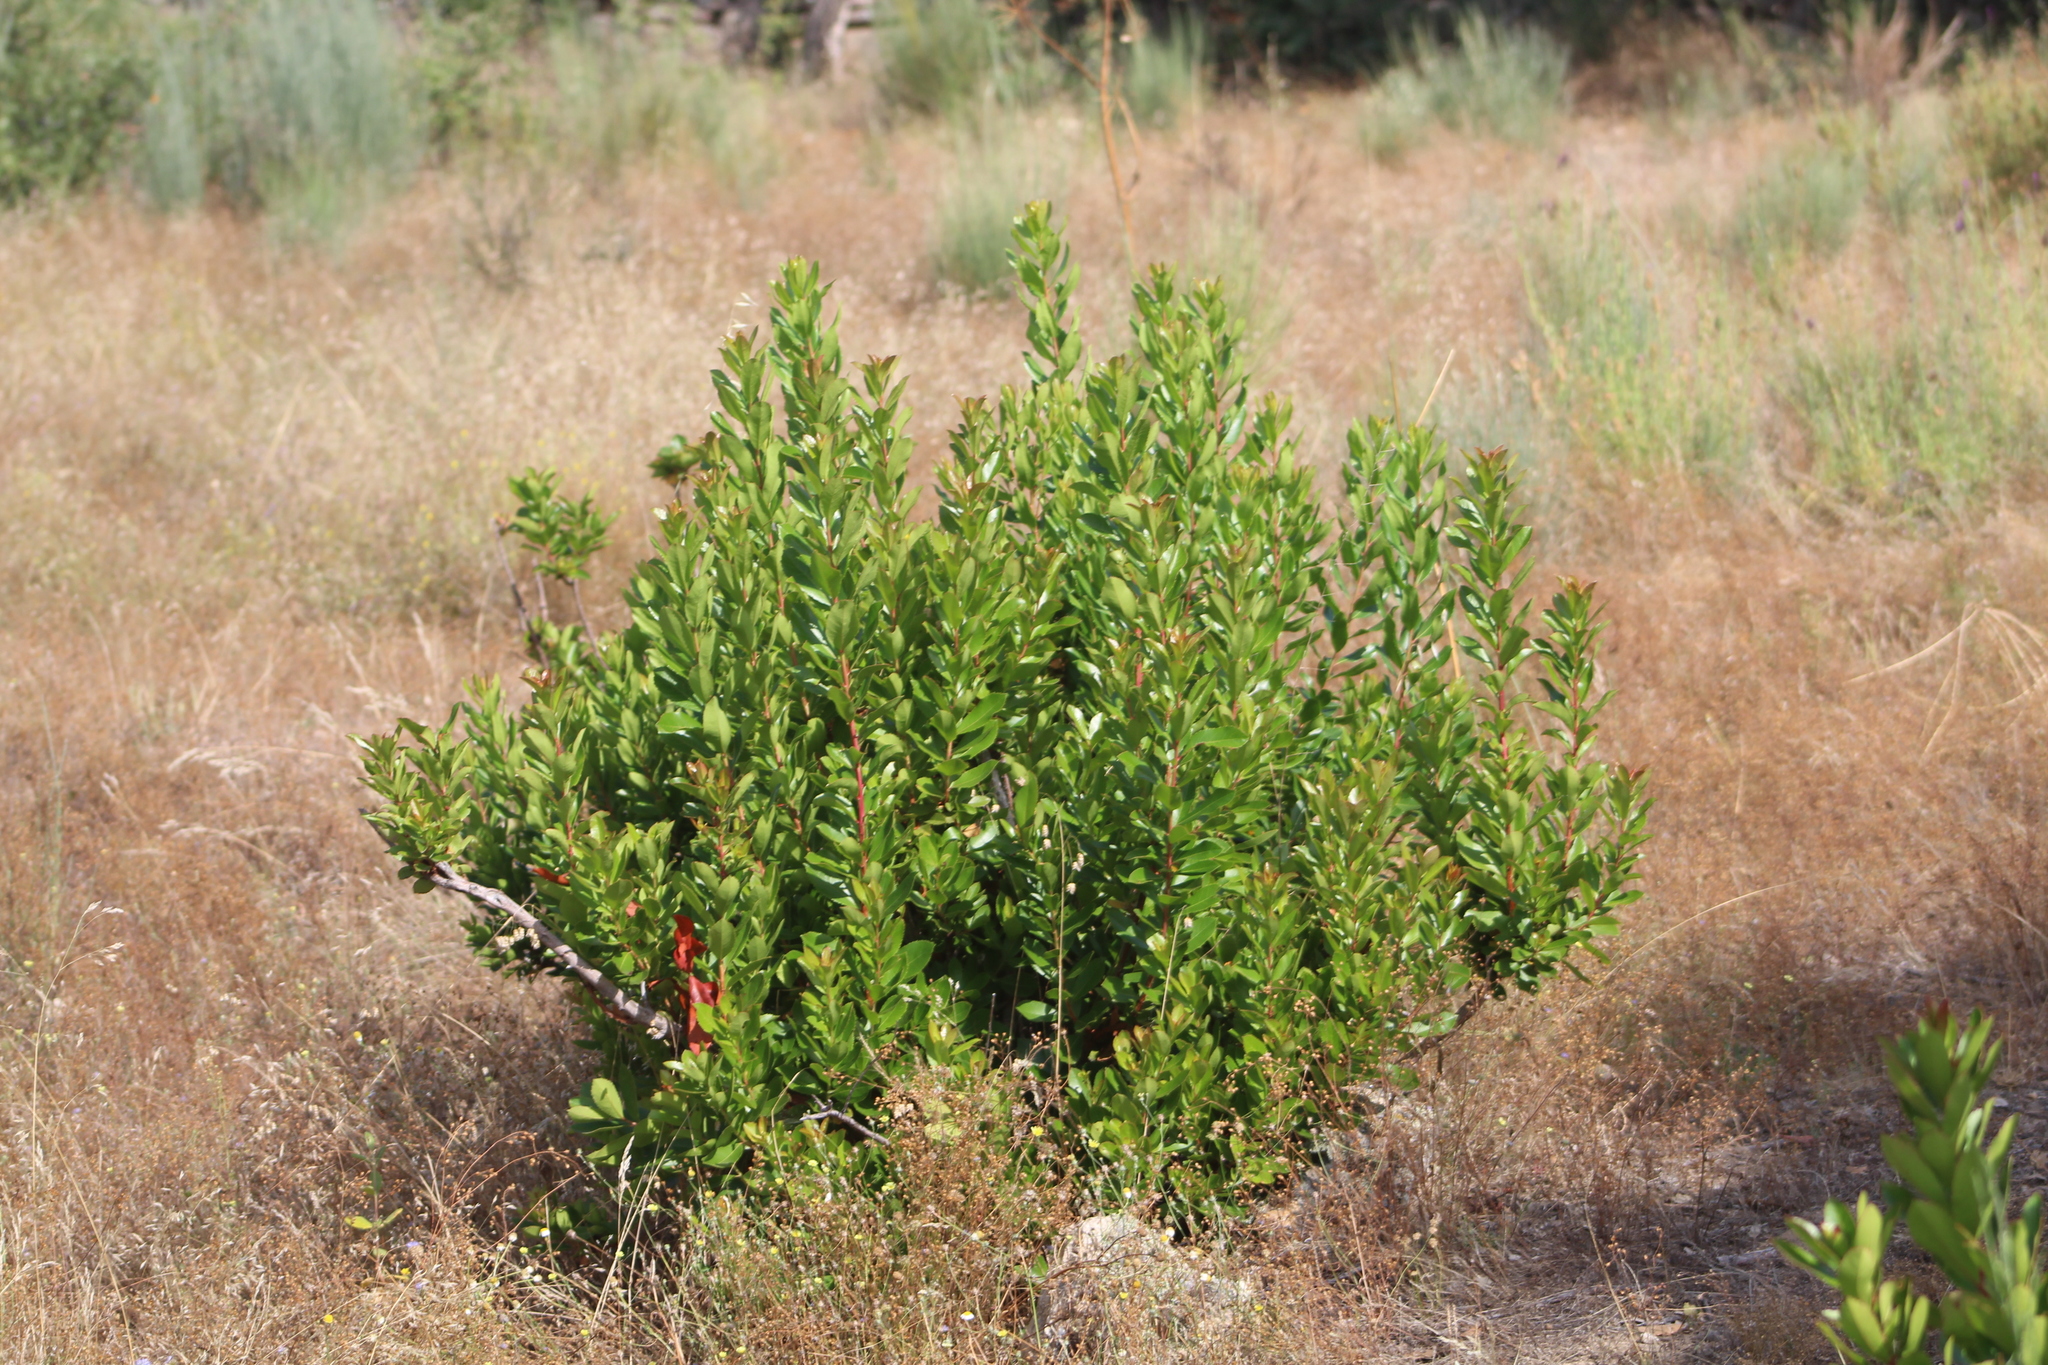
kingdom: Plantae
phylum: Tracheophyta
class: Magnoliopsida
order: Ericales
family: Ericaceae
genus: Arbutus
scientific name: Arbutus unedo
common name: Strawberry-tree
